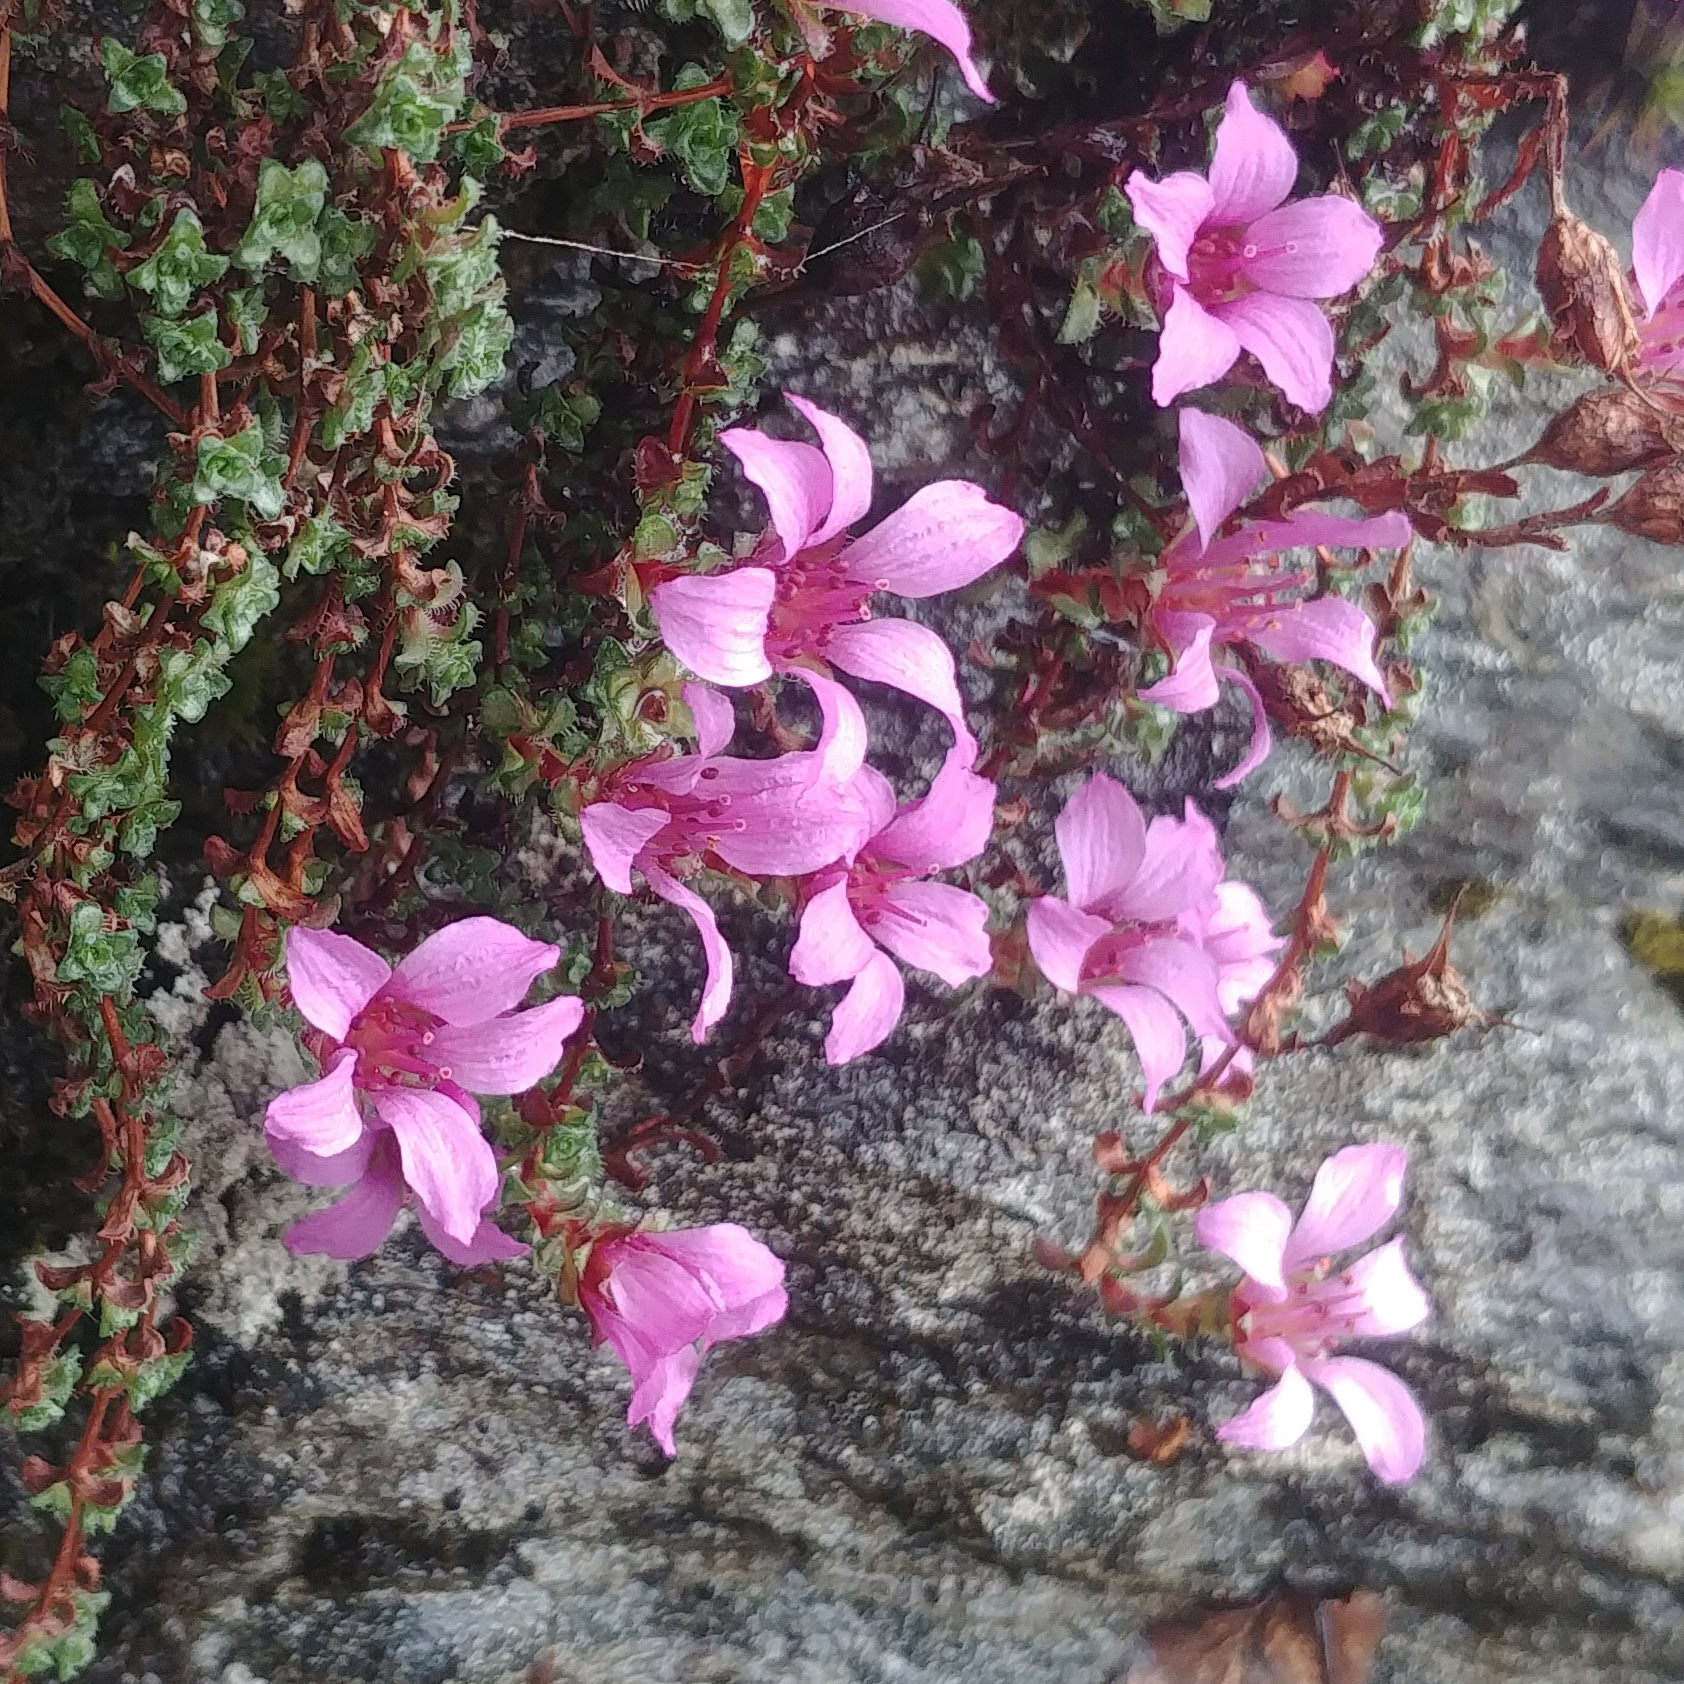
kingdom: Plantae
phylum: Tracheophyta
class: Magnoliopsida
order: Saxifragales
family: Saxifragaceae
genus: Saxifraga
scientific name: Saxifraga oppositifolia
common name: Purple saxifrage
